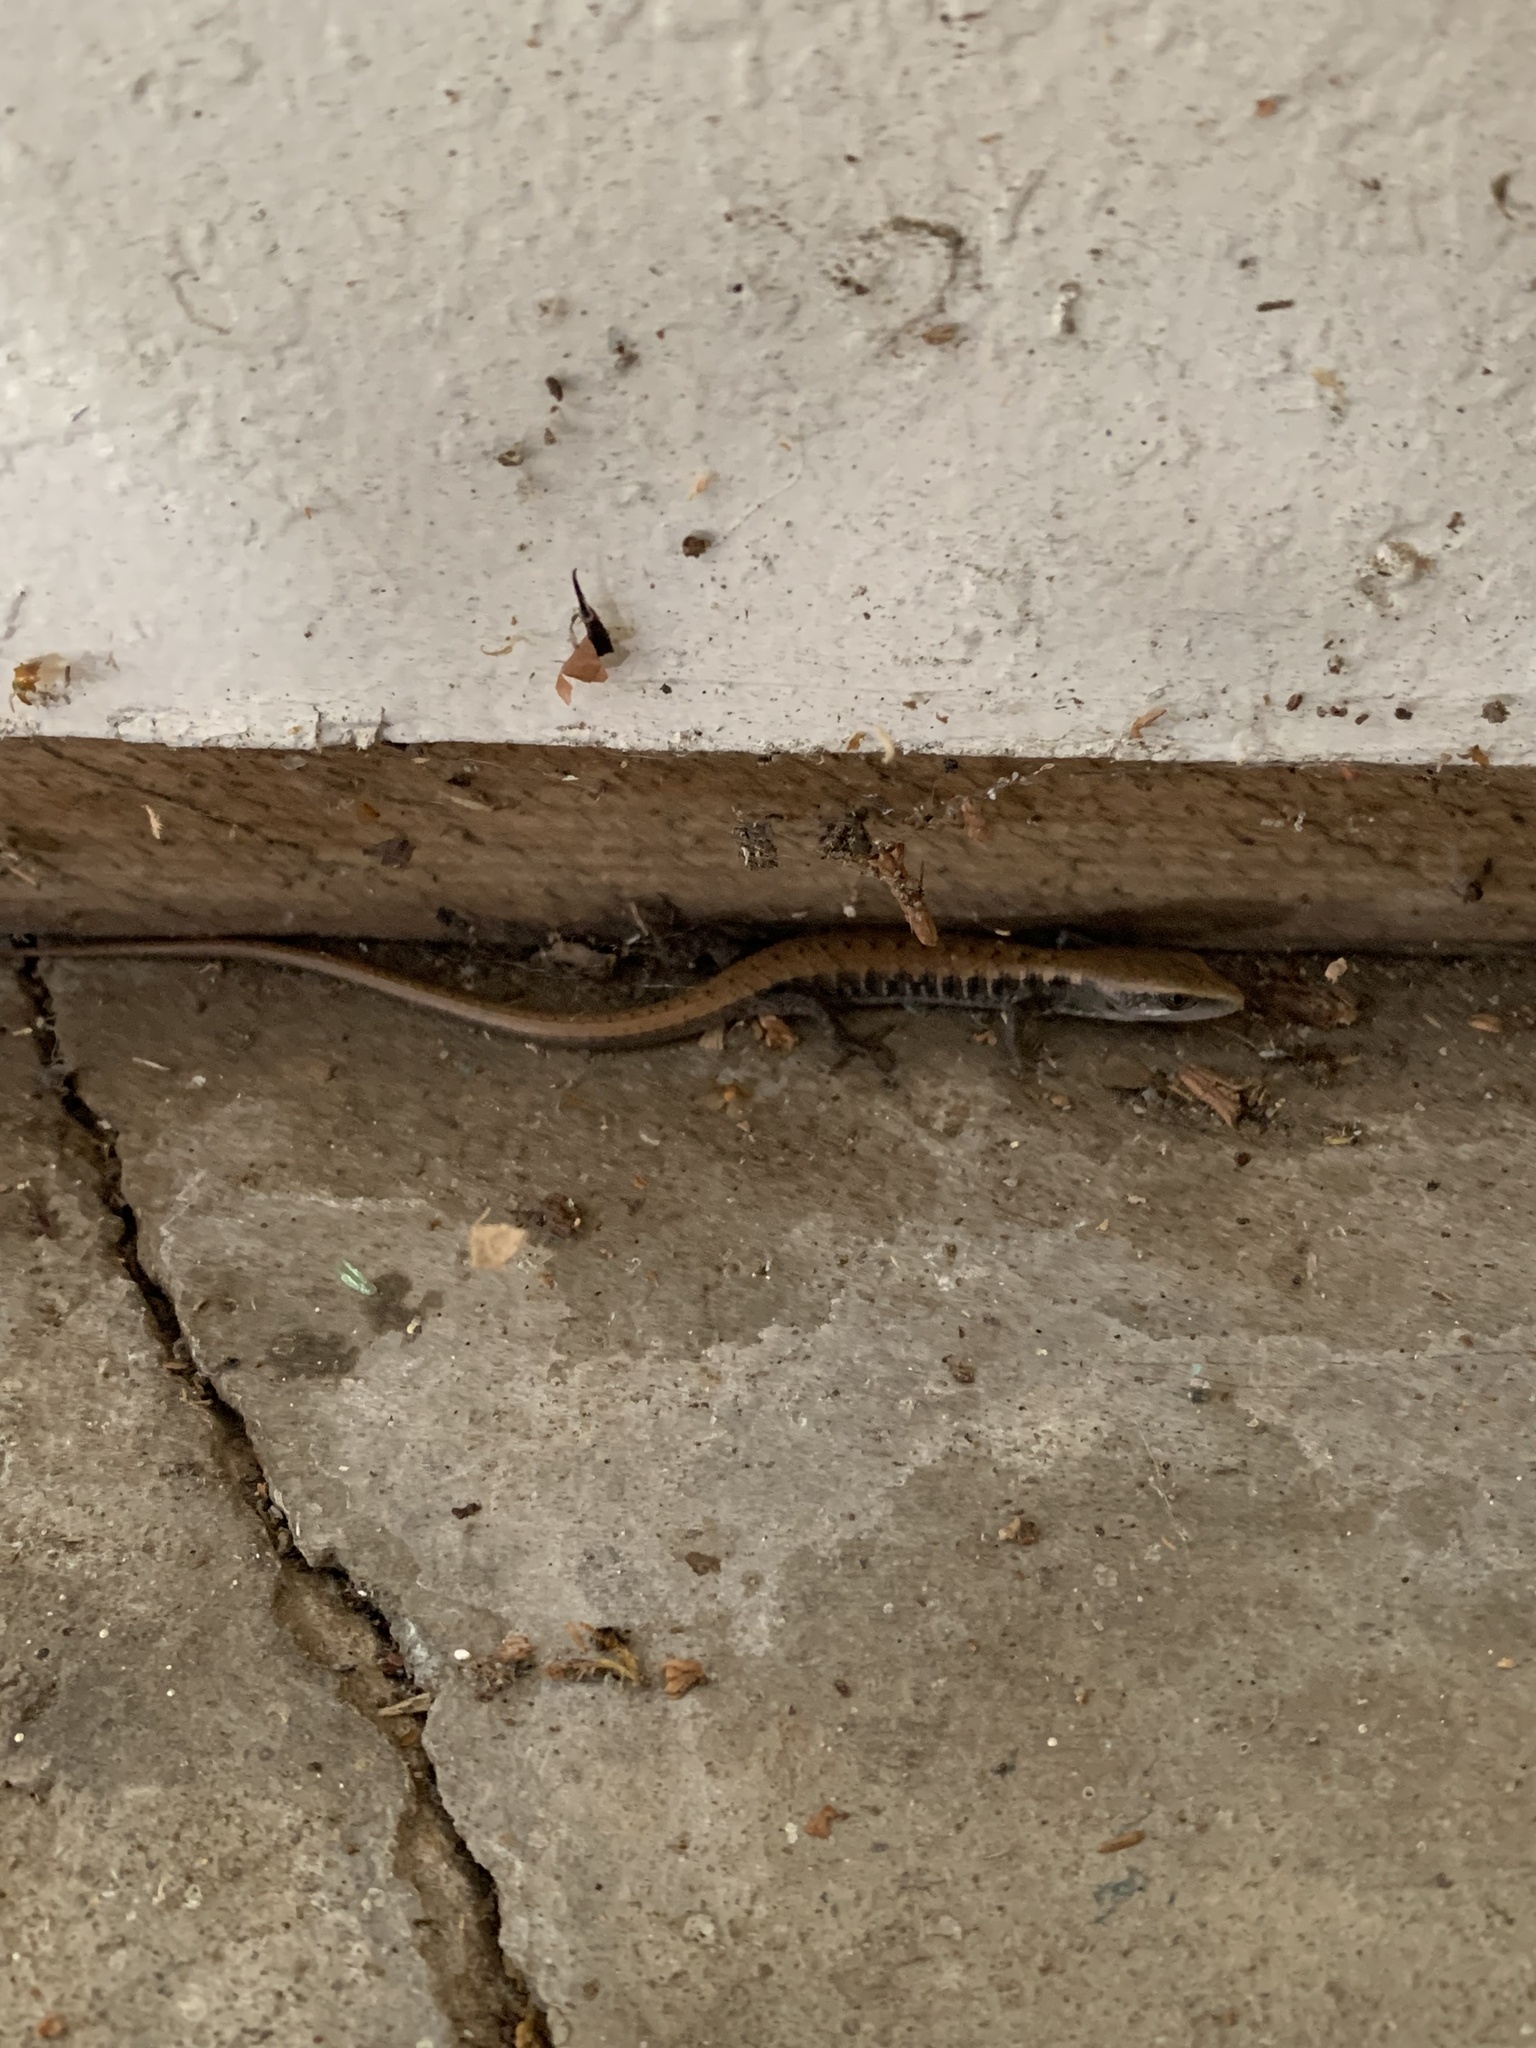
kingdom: Animalia
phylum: Chordata
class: Squamata
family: Anguidae
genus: Elgaria
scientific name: Elgaria multicarinata
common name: Southern alligator lizard
